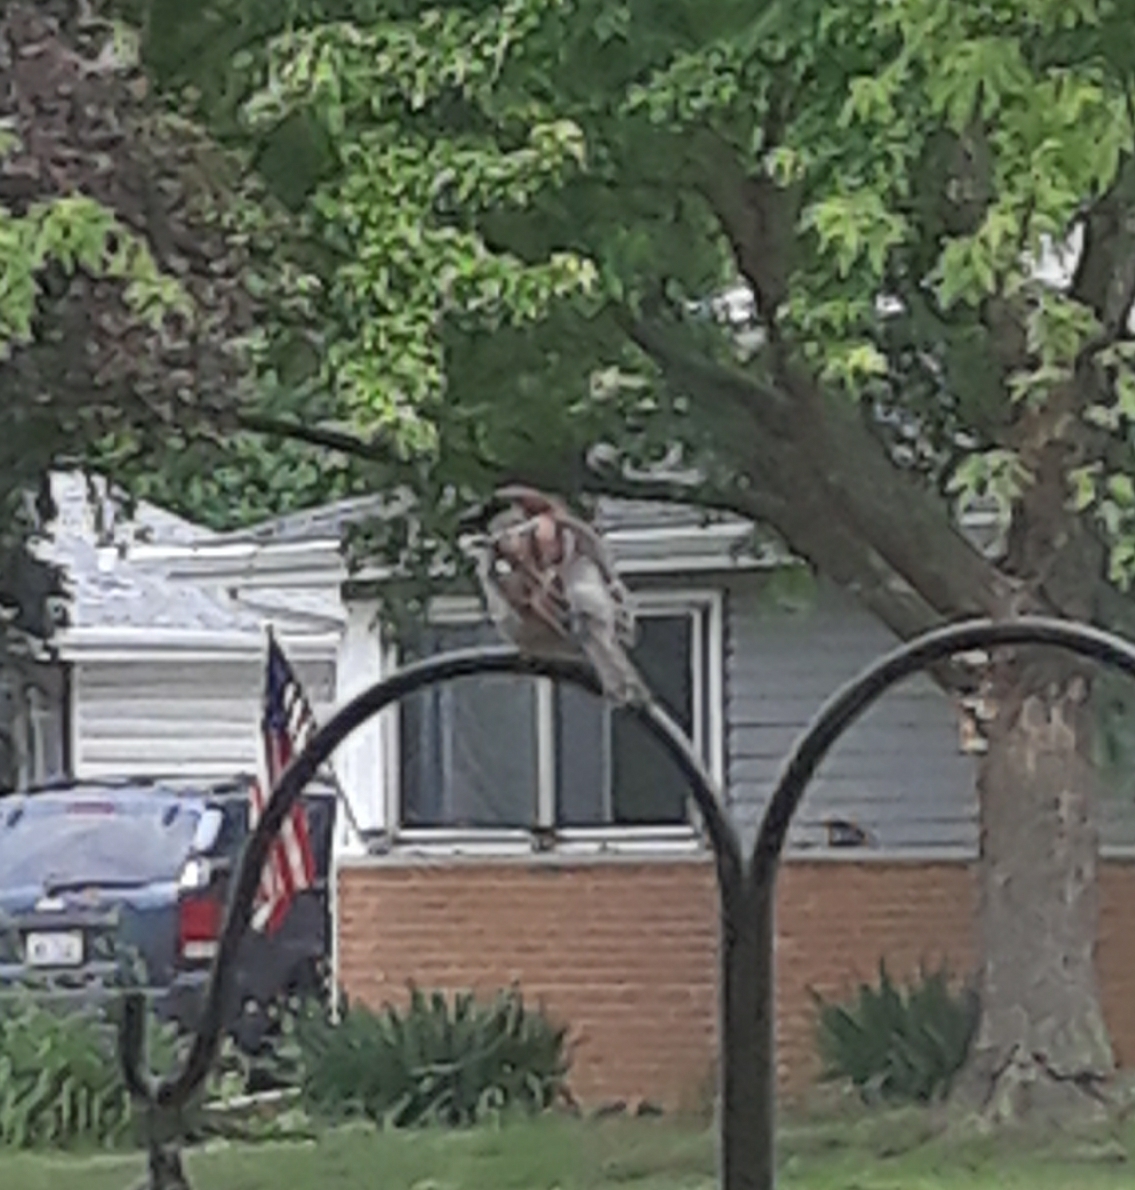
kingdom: Animalia
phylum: Chordata
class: Aves
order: Passeriformes
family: Passeridae
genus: Passer
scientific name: Passer domesticus
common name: House sparrow
